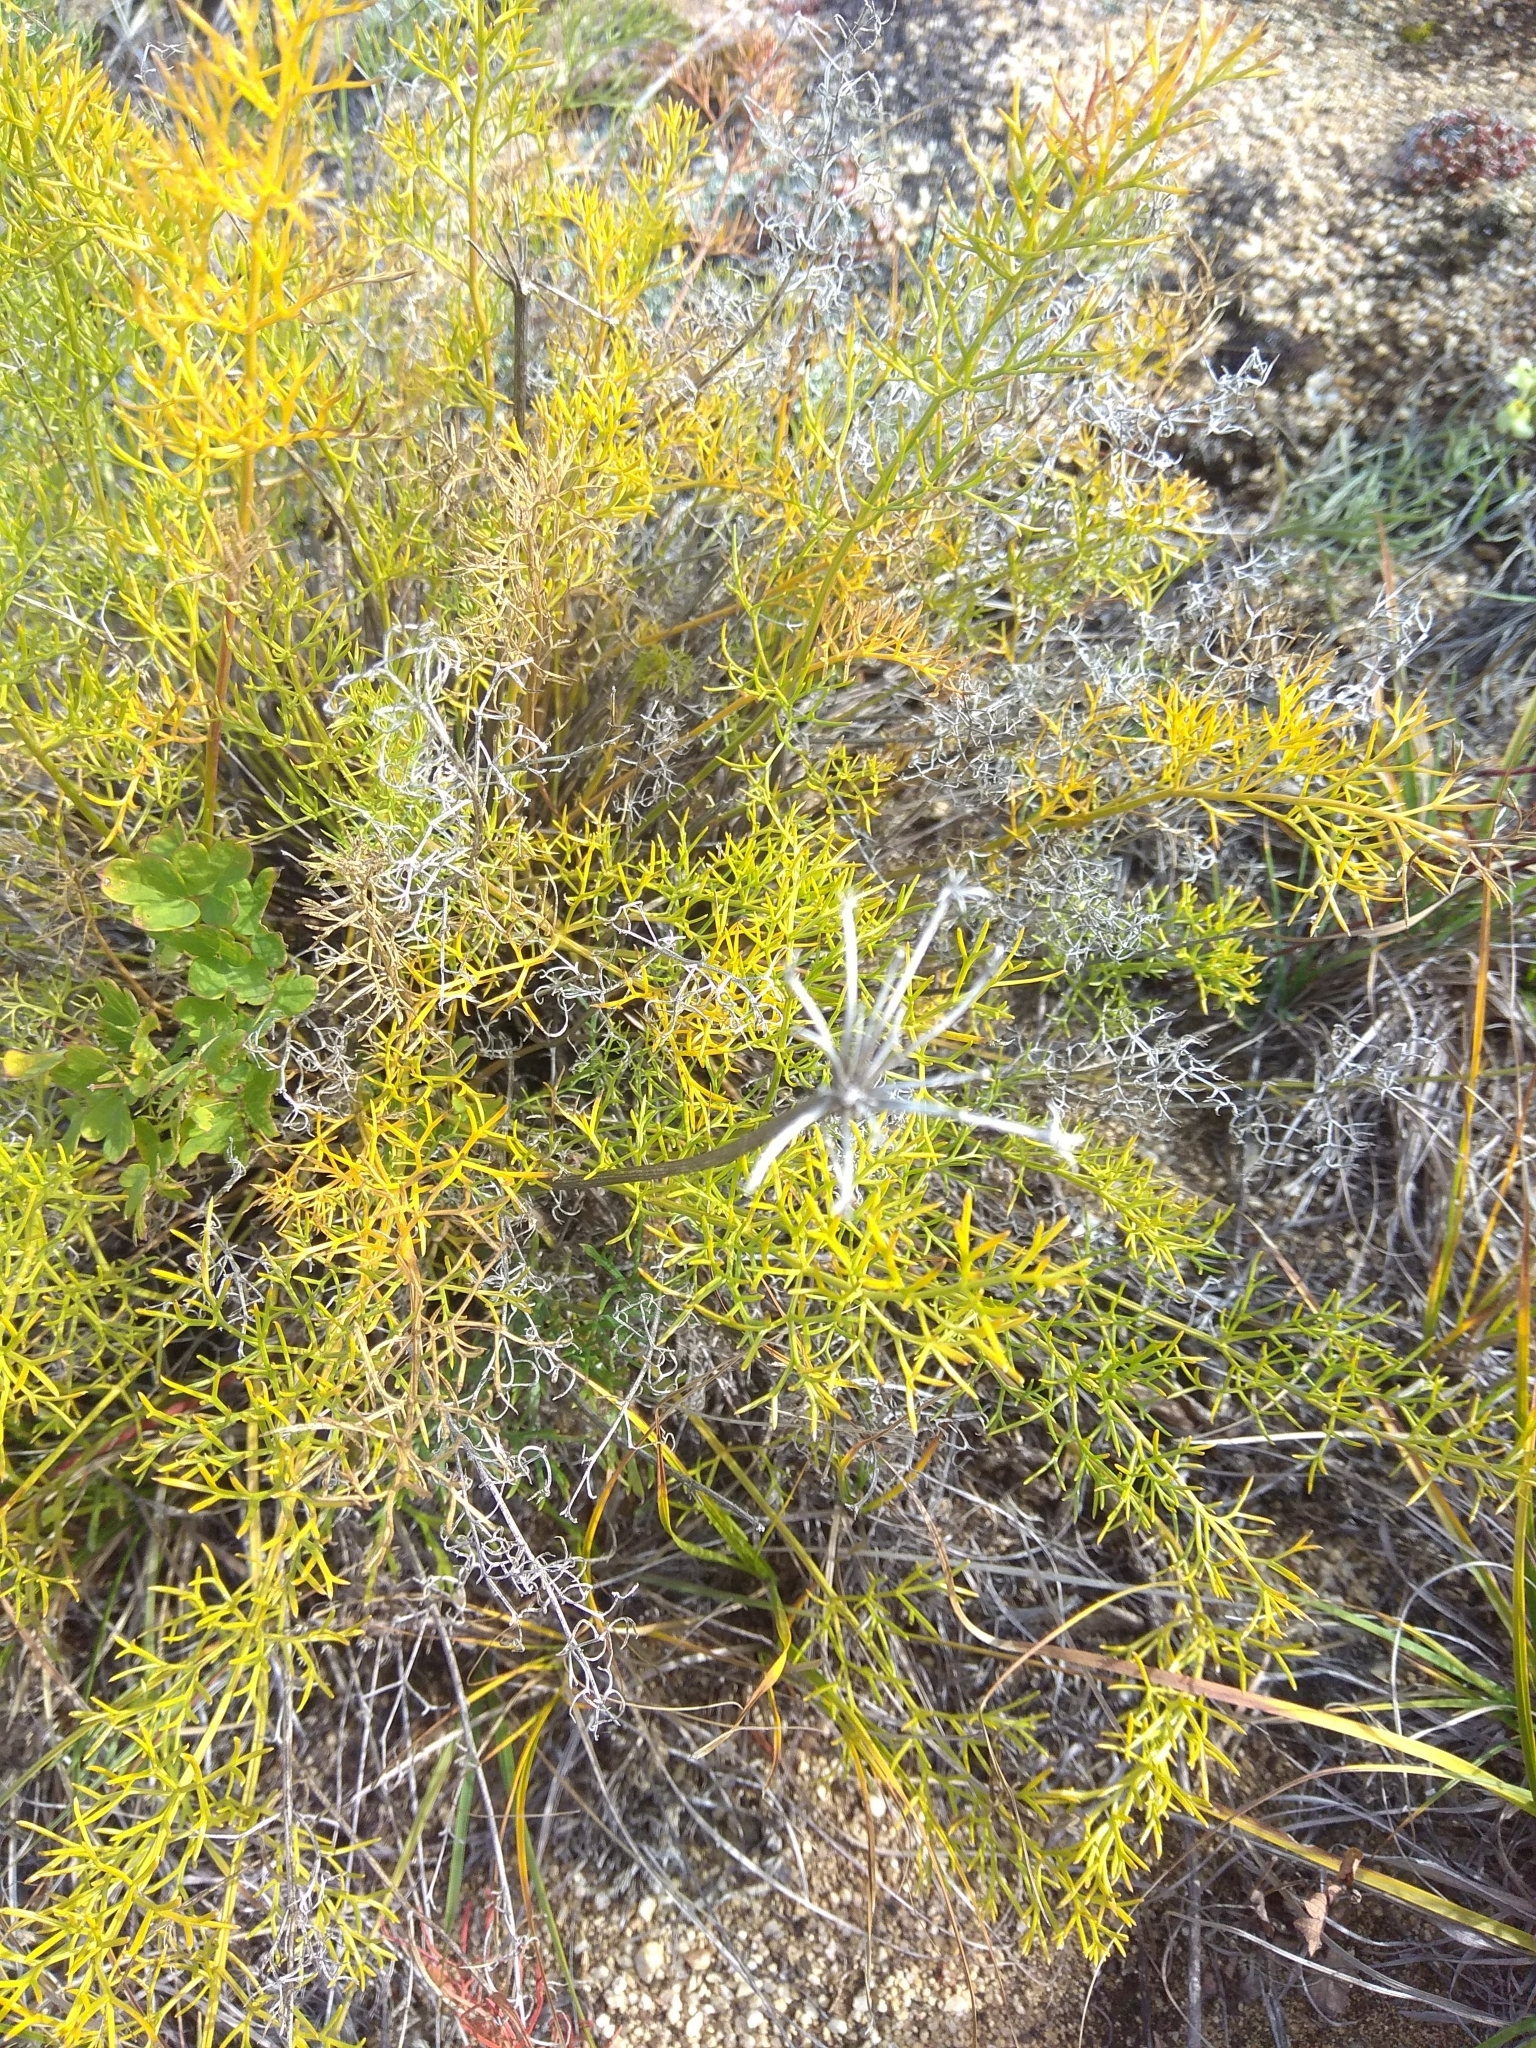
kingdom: Plantae
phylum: Tracheophyta
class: Magnoliopsida
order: Apiales
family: Apiaceae
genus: Ferulopsis
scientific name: Ferulopsis hystrix
